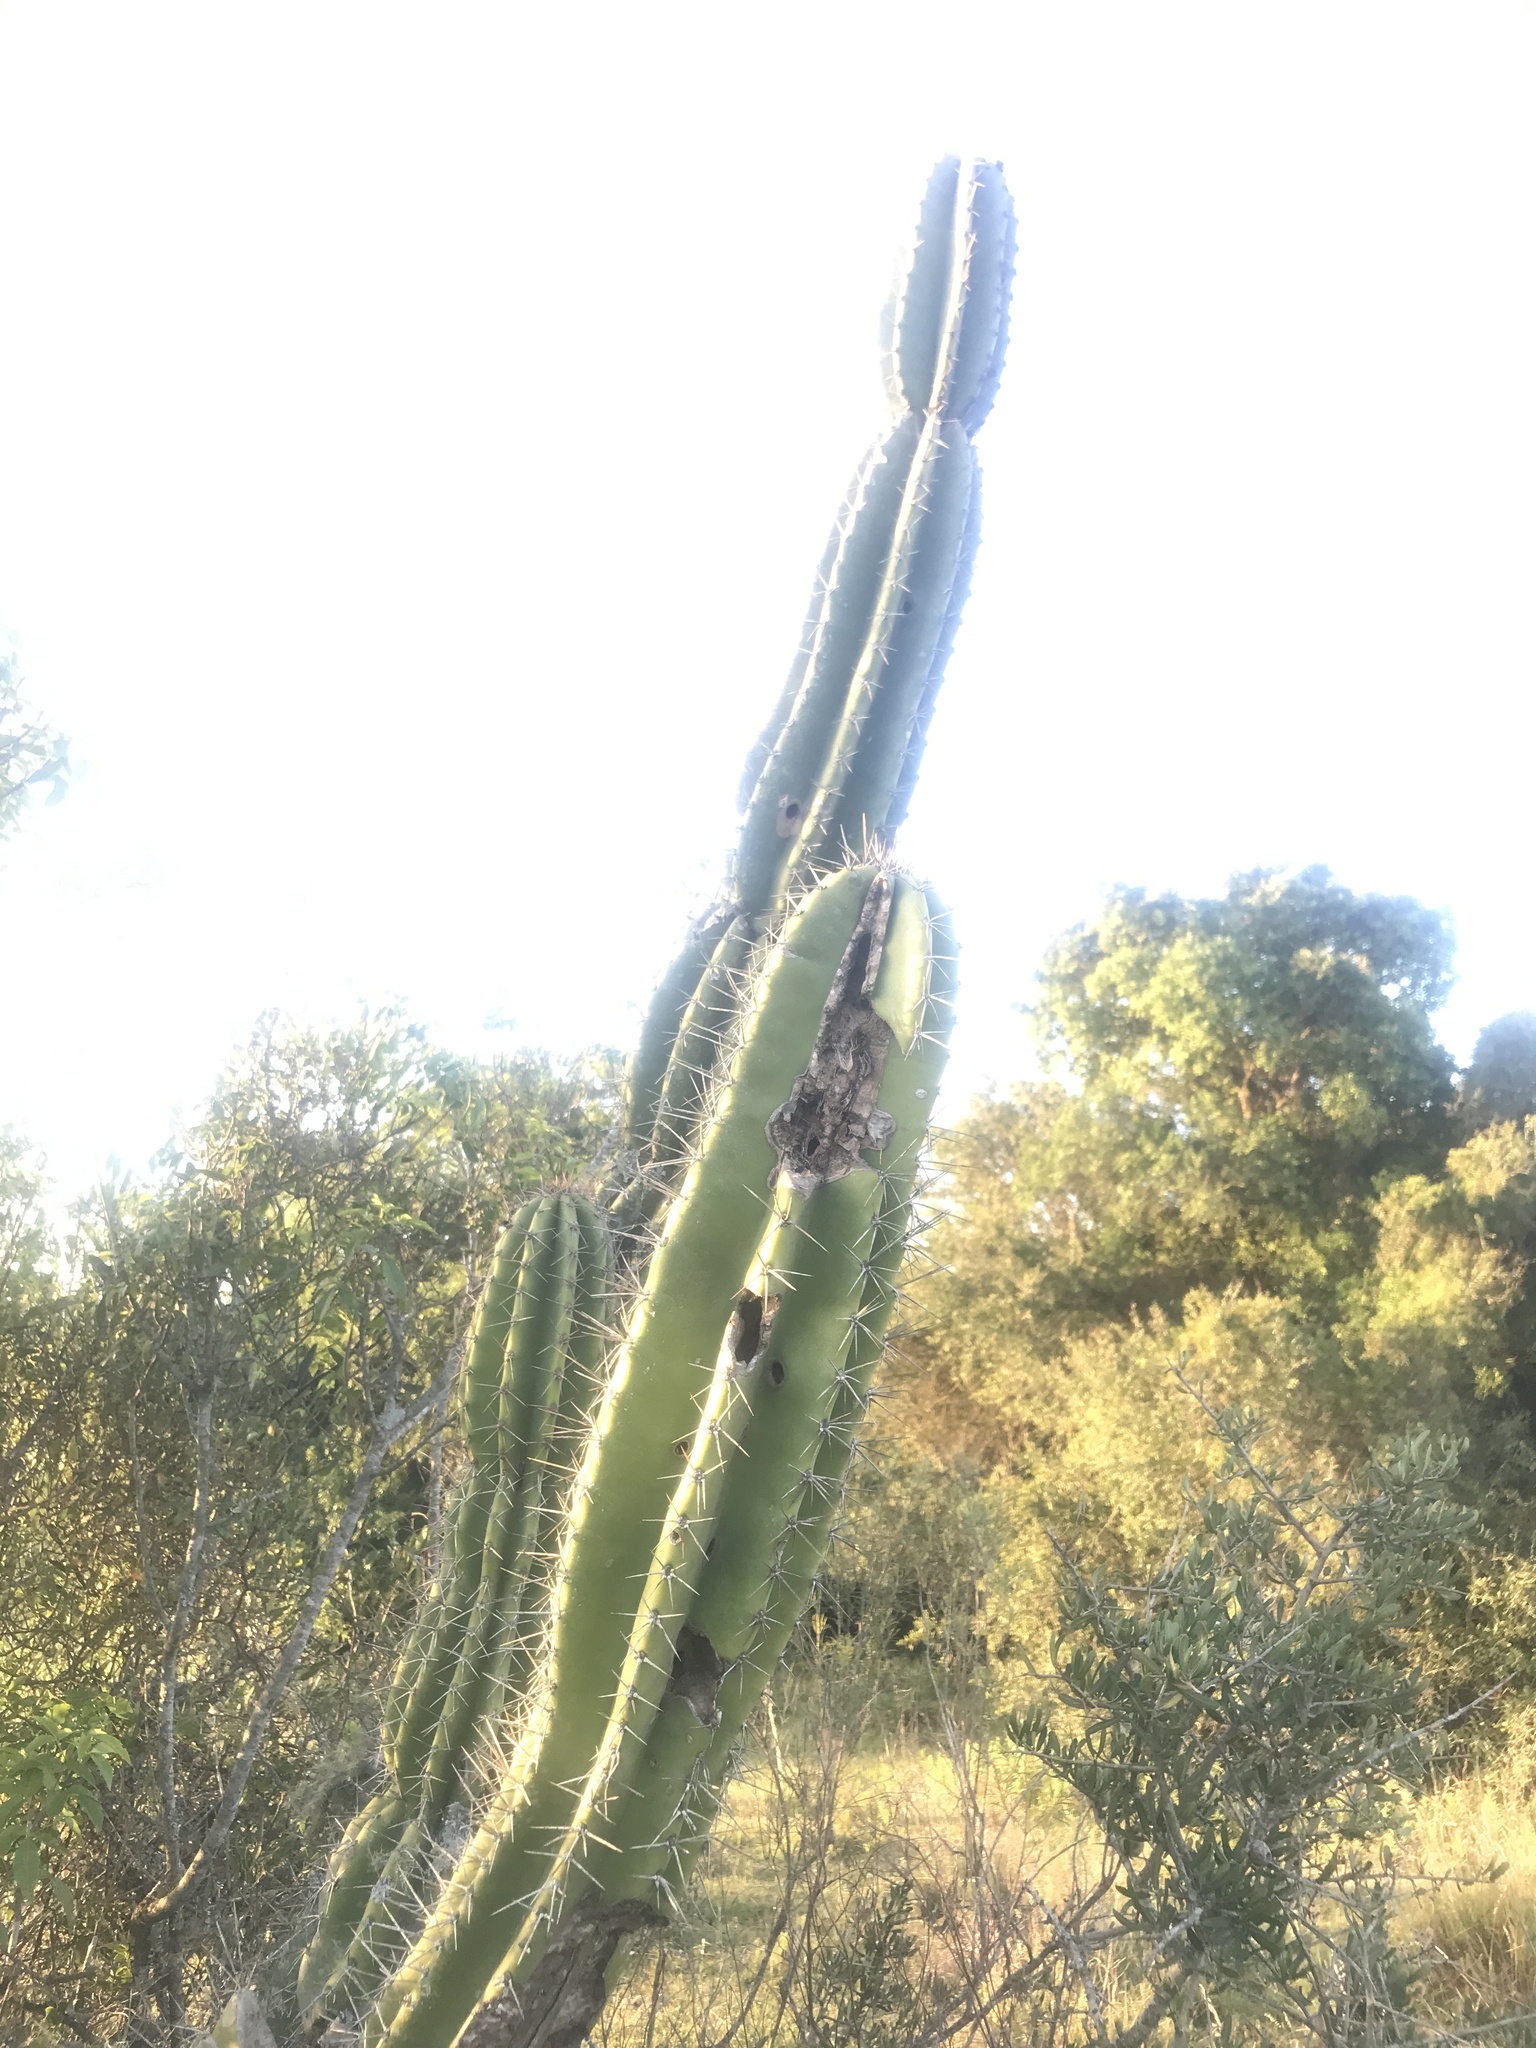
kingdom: Plantae
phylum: Tracheophyta
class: Magnoliopsida
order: Caryophyllales
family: Cactaceae
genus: Cereus
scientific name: Cereus hildmannianus
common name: Hedge cactus
